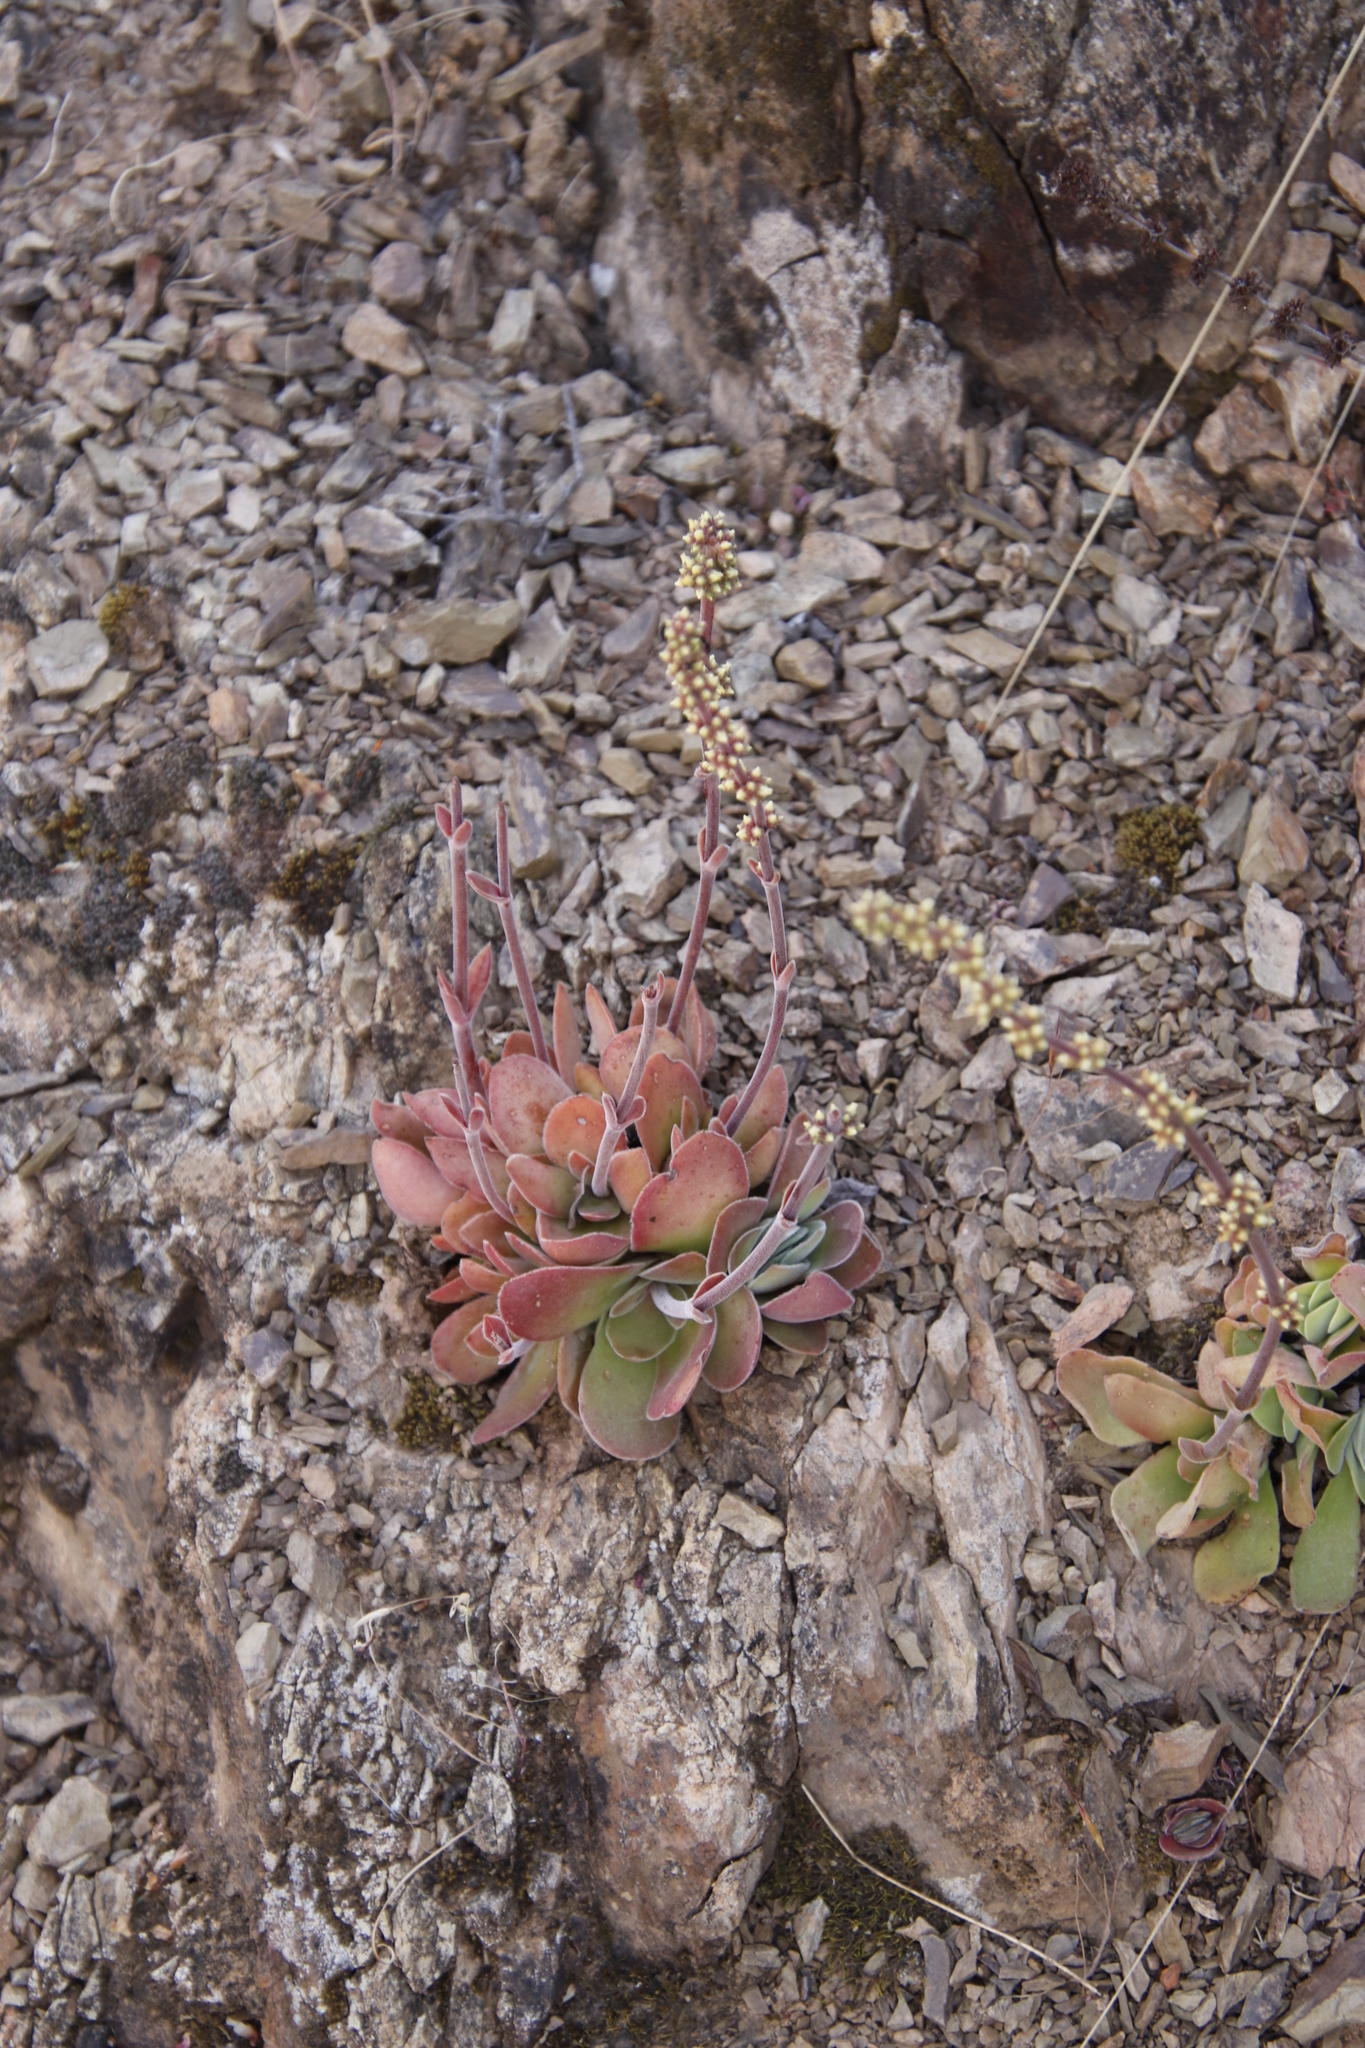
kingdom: Plantae
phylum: Tracheophyta
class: Magnoliopsida
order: Saxifragales
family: Crassulaceae
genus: Crassula
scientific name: Crassula tomentosa
